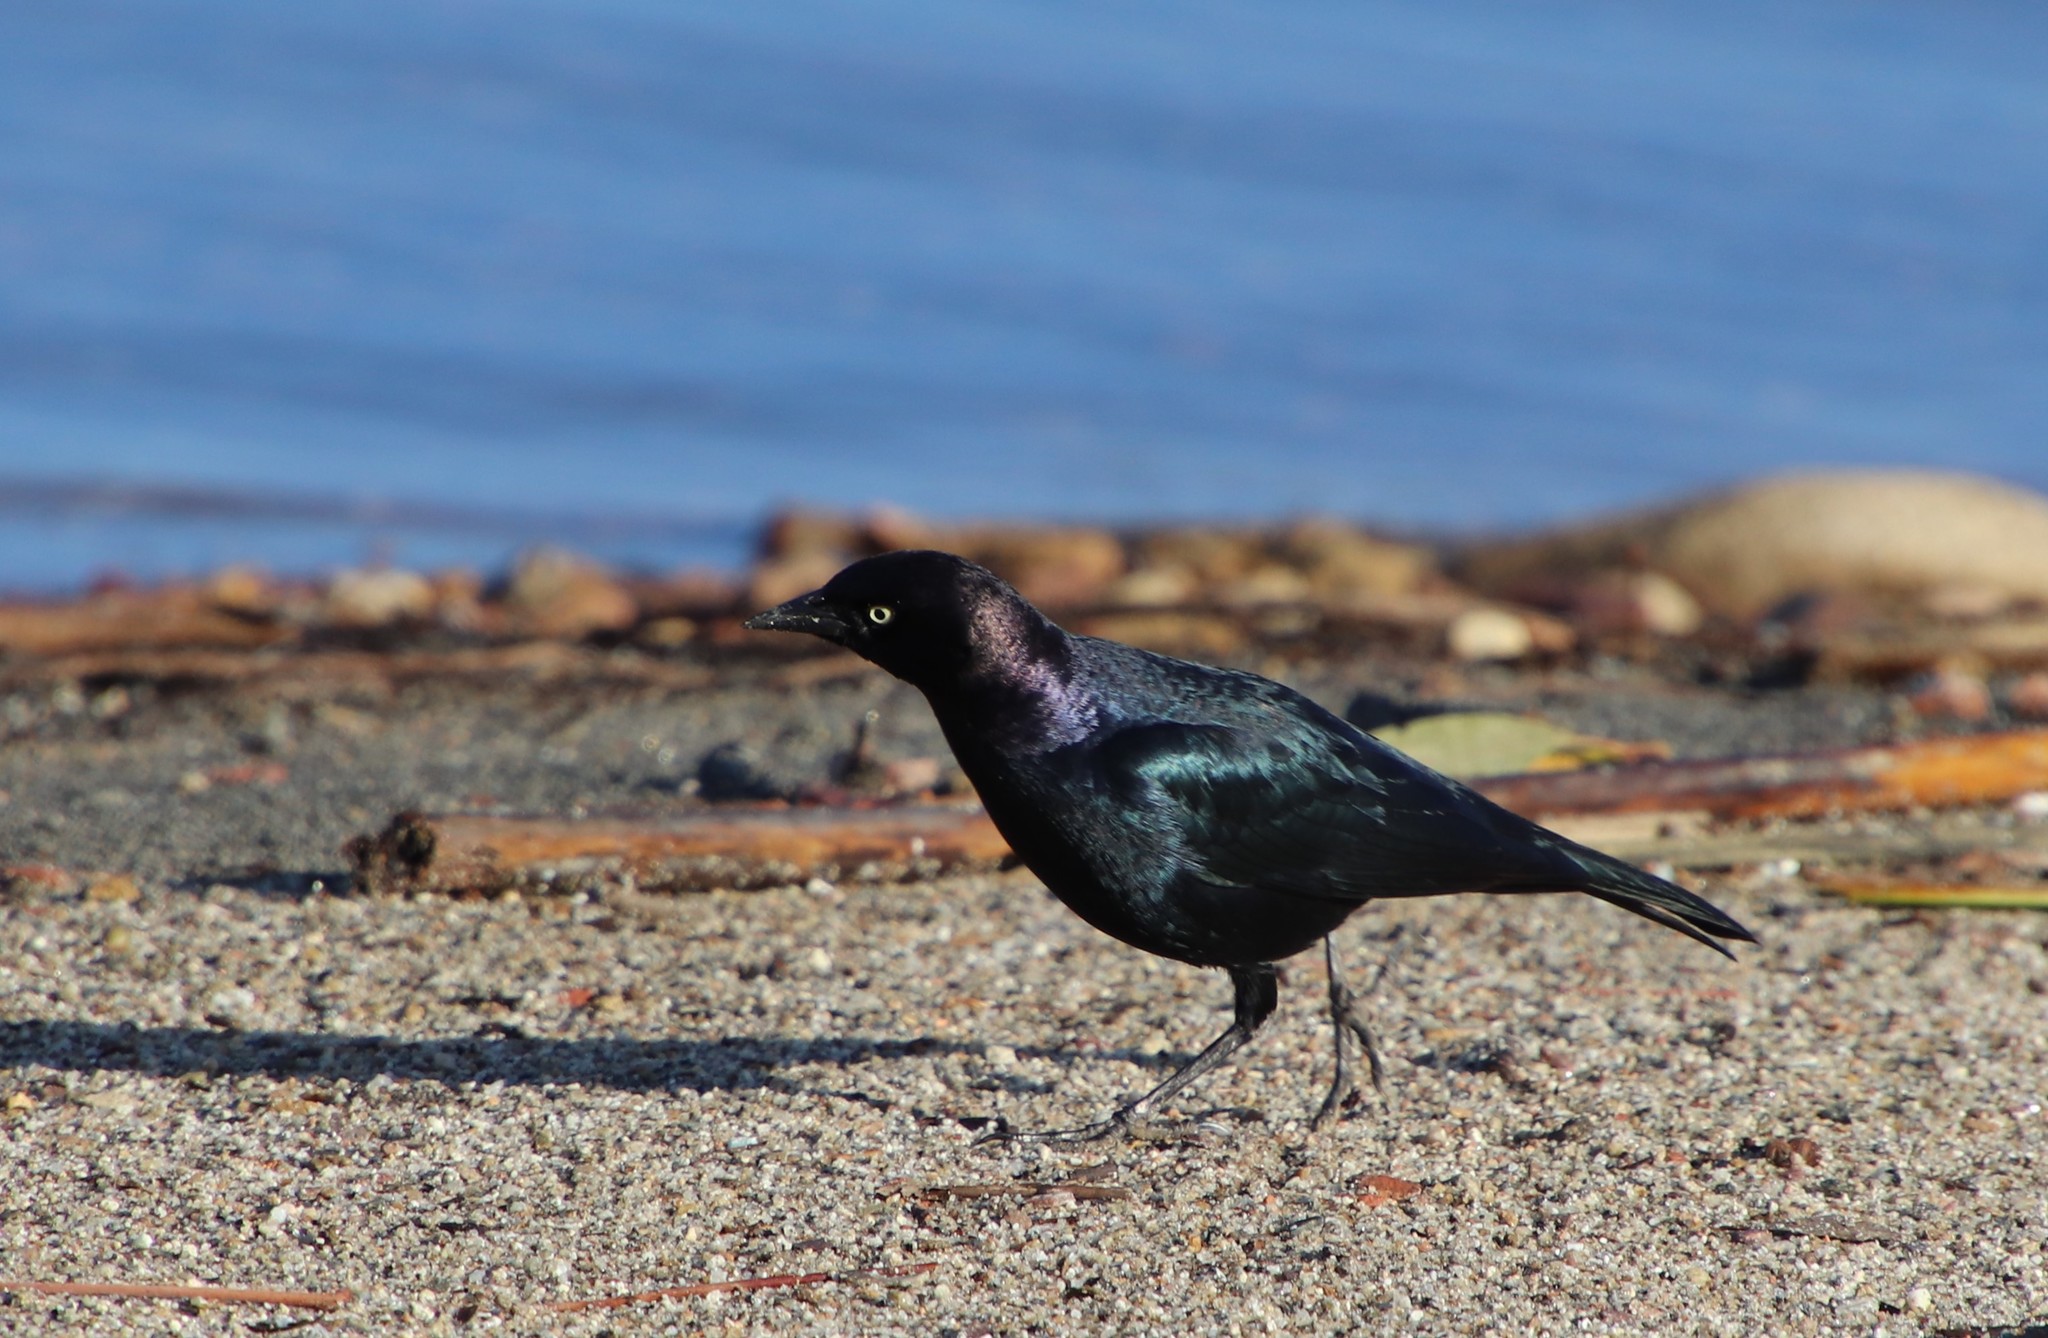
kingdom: Animalia
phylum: Chordata
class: Aves
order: Passeriformes
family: Icteridae
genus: Euphagus
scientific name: Euphagus cyanocephalus
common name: Brewer's blackbird
